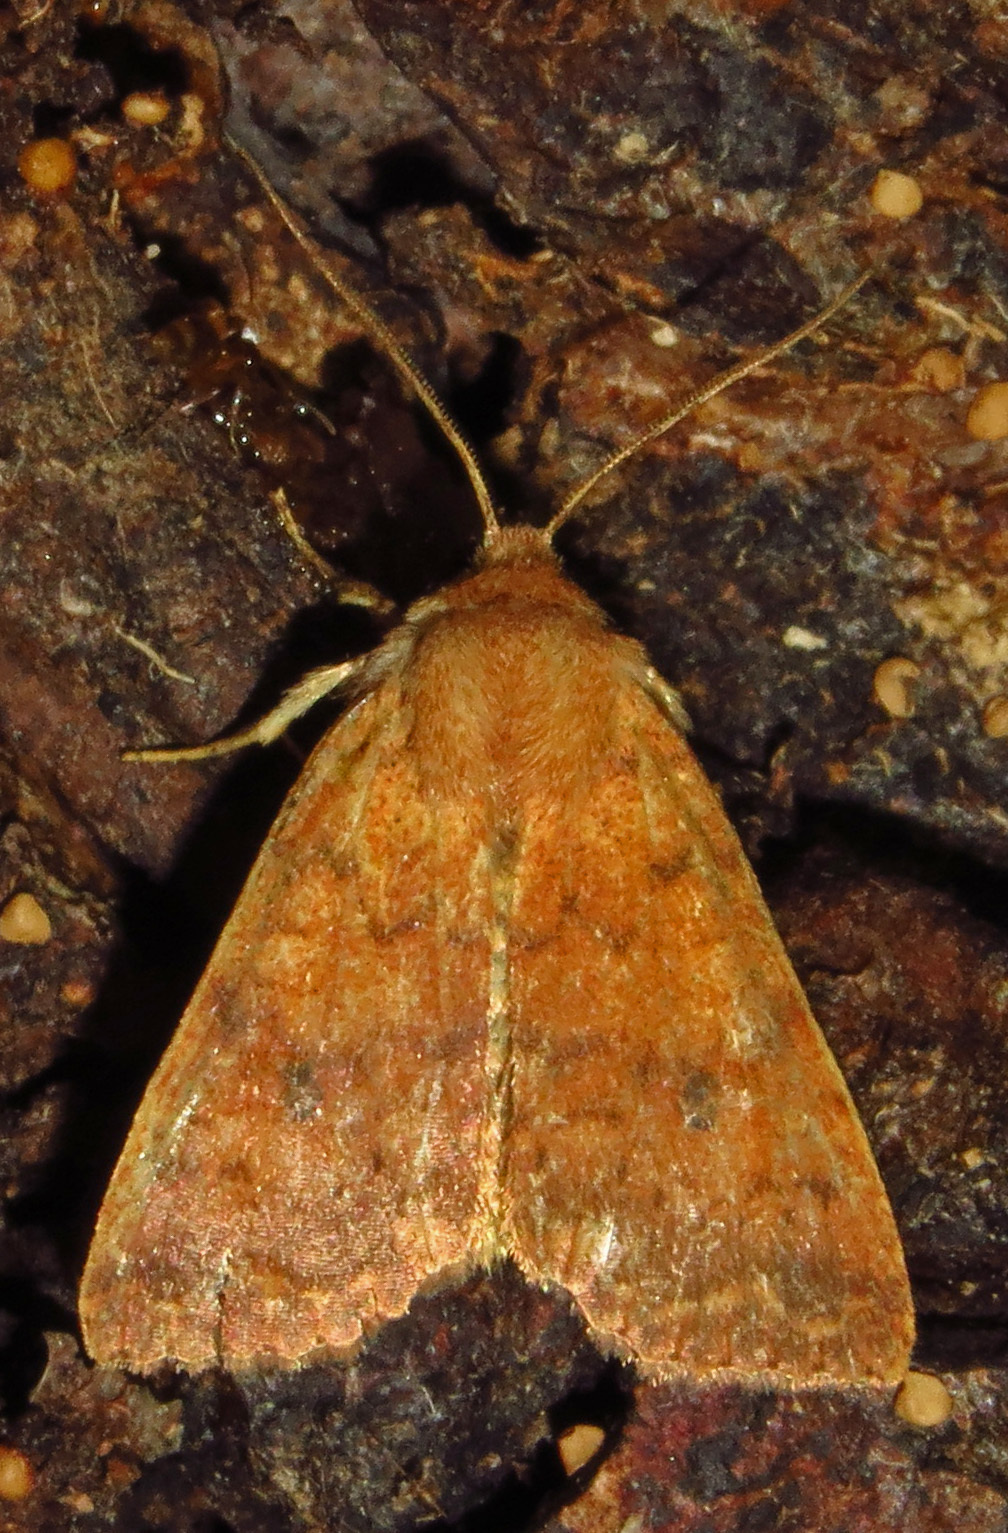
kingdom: Animalia
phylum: Arthropoda
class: Insecta
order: Lepidoptera
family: Noctuidae
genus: Agrochola
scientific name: Agrochola bicolorago
